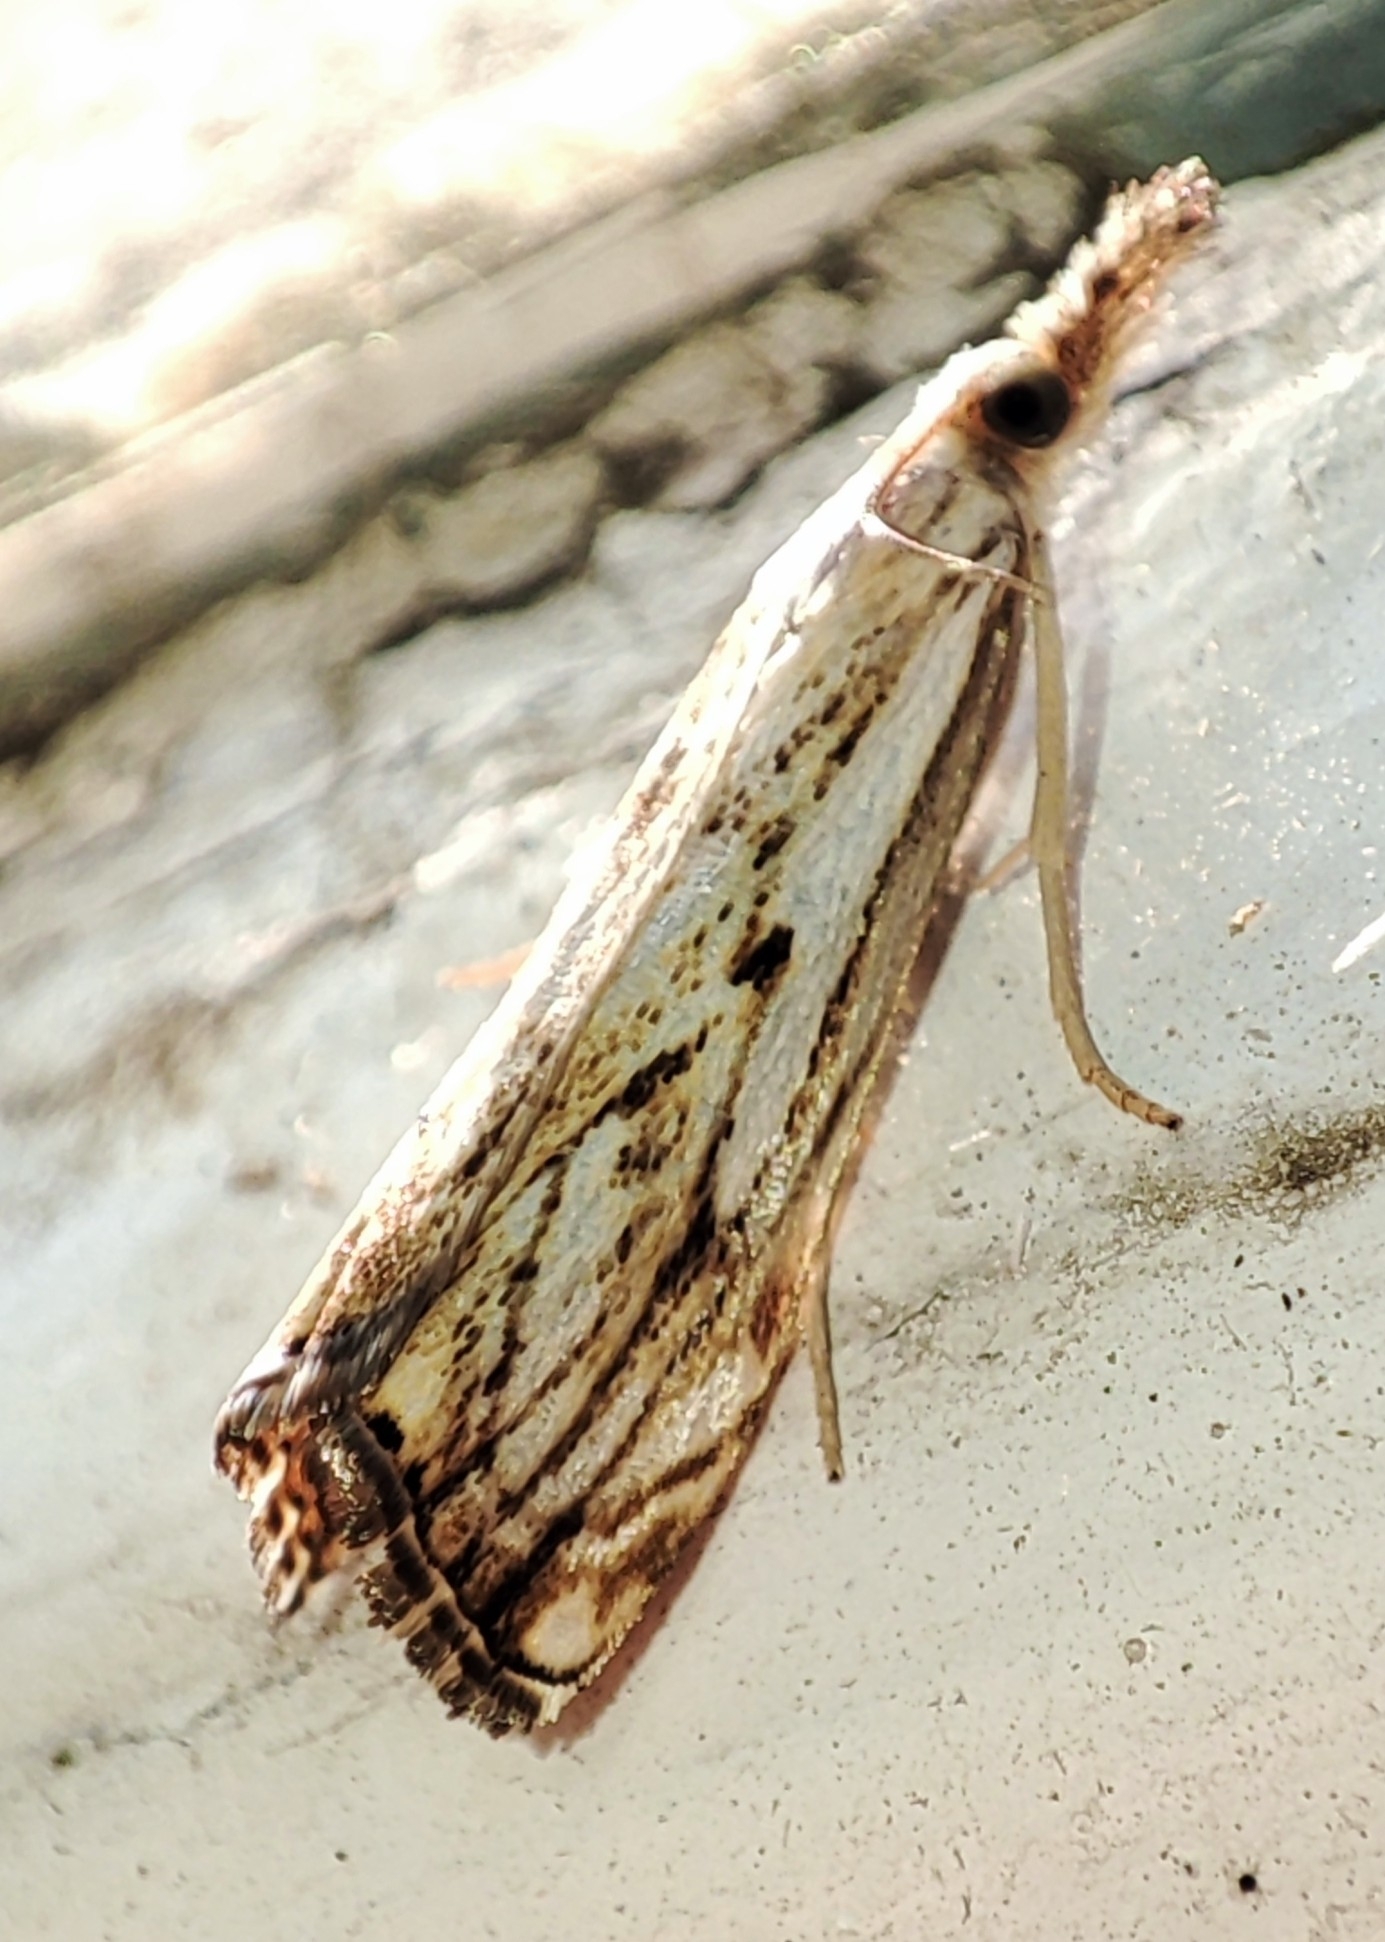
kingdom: Animalia
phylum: Arthropoda
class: Insecta
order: Lepidoptera
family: Crambidae
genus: Catoptria
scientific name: Catoptria falsella
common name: Chequered grass-veneer
